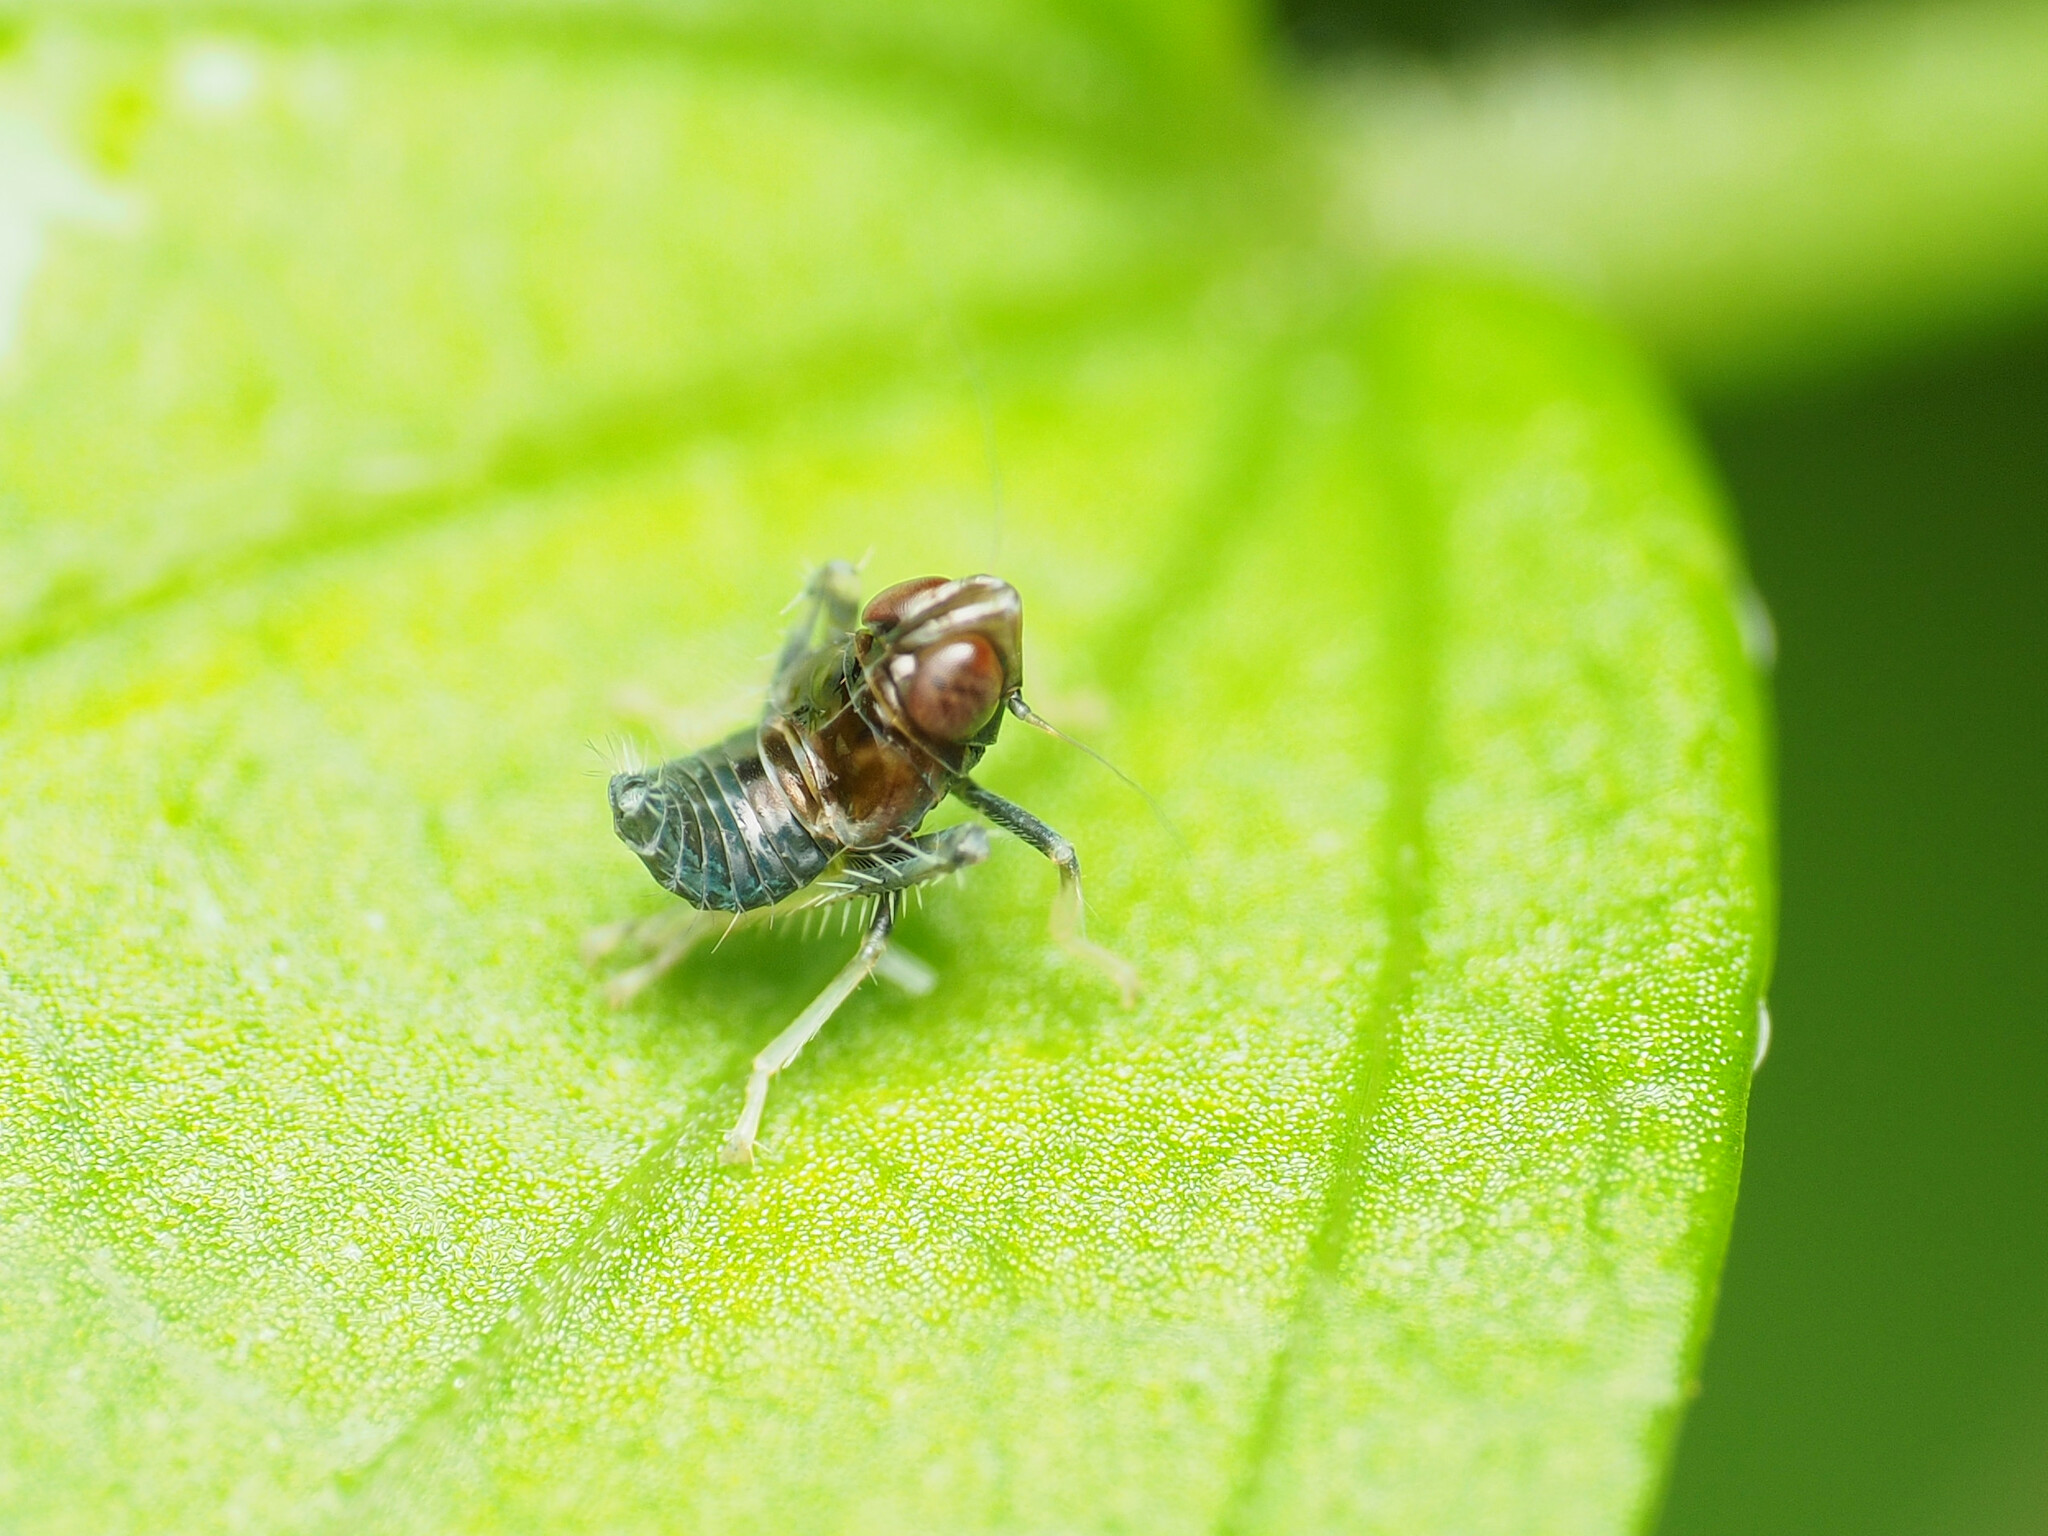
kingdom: Animalia
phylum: Arthropoda
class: Insecta
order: Hemiptera
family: Cicadellidae
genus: Jikradia
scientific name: Jikradia olitoria
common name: Coppery leafhopper
